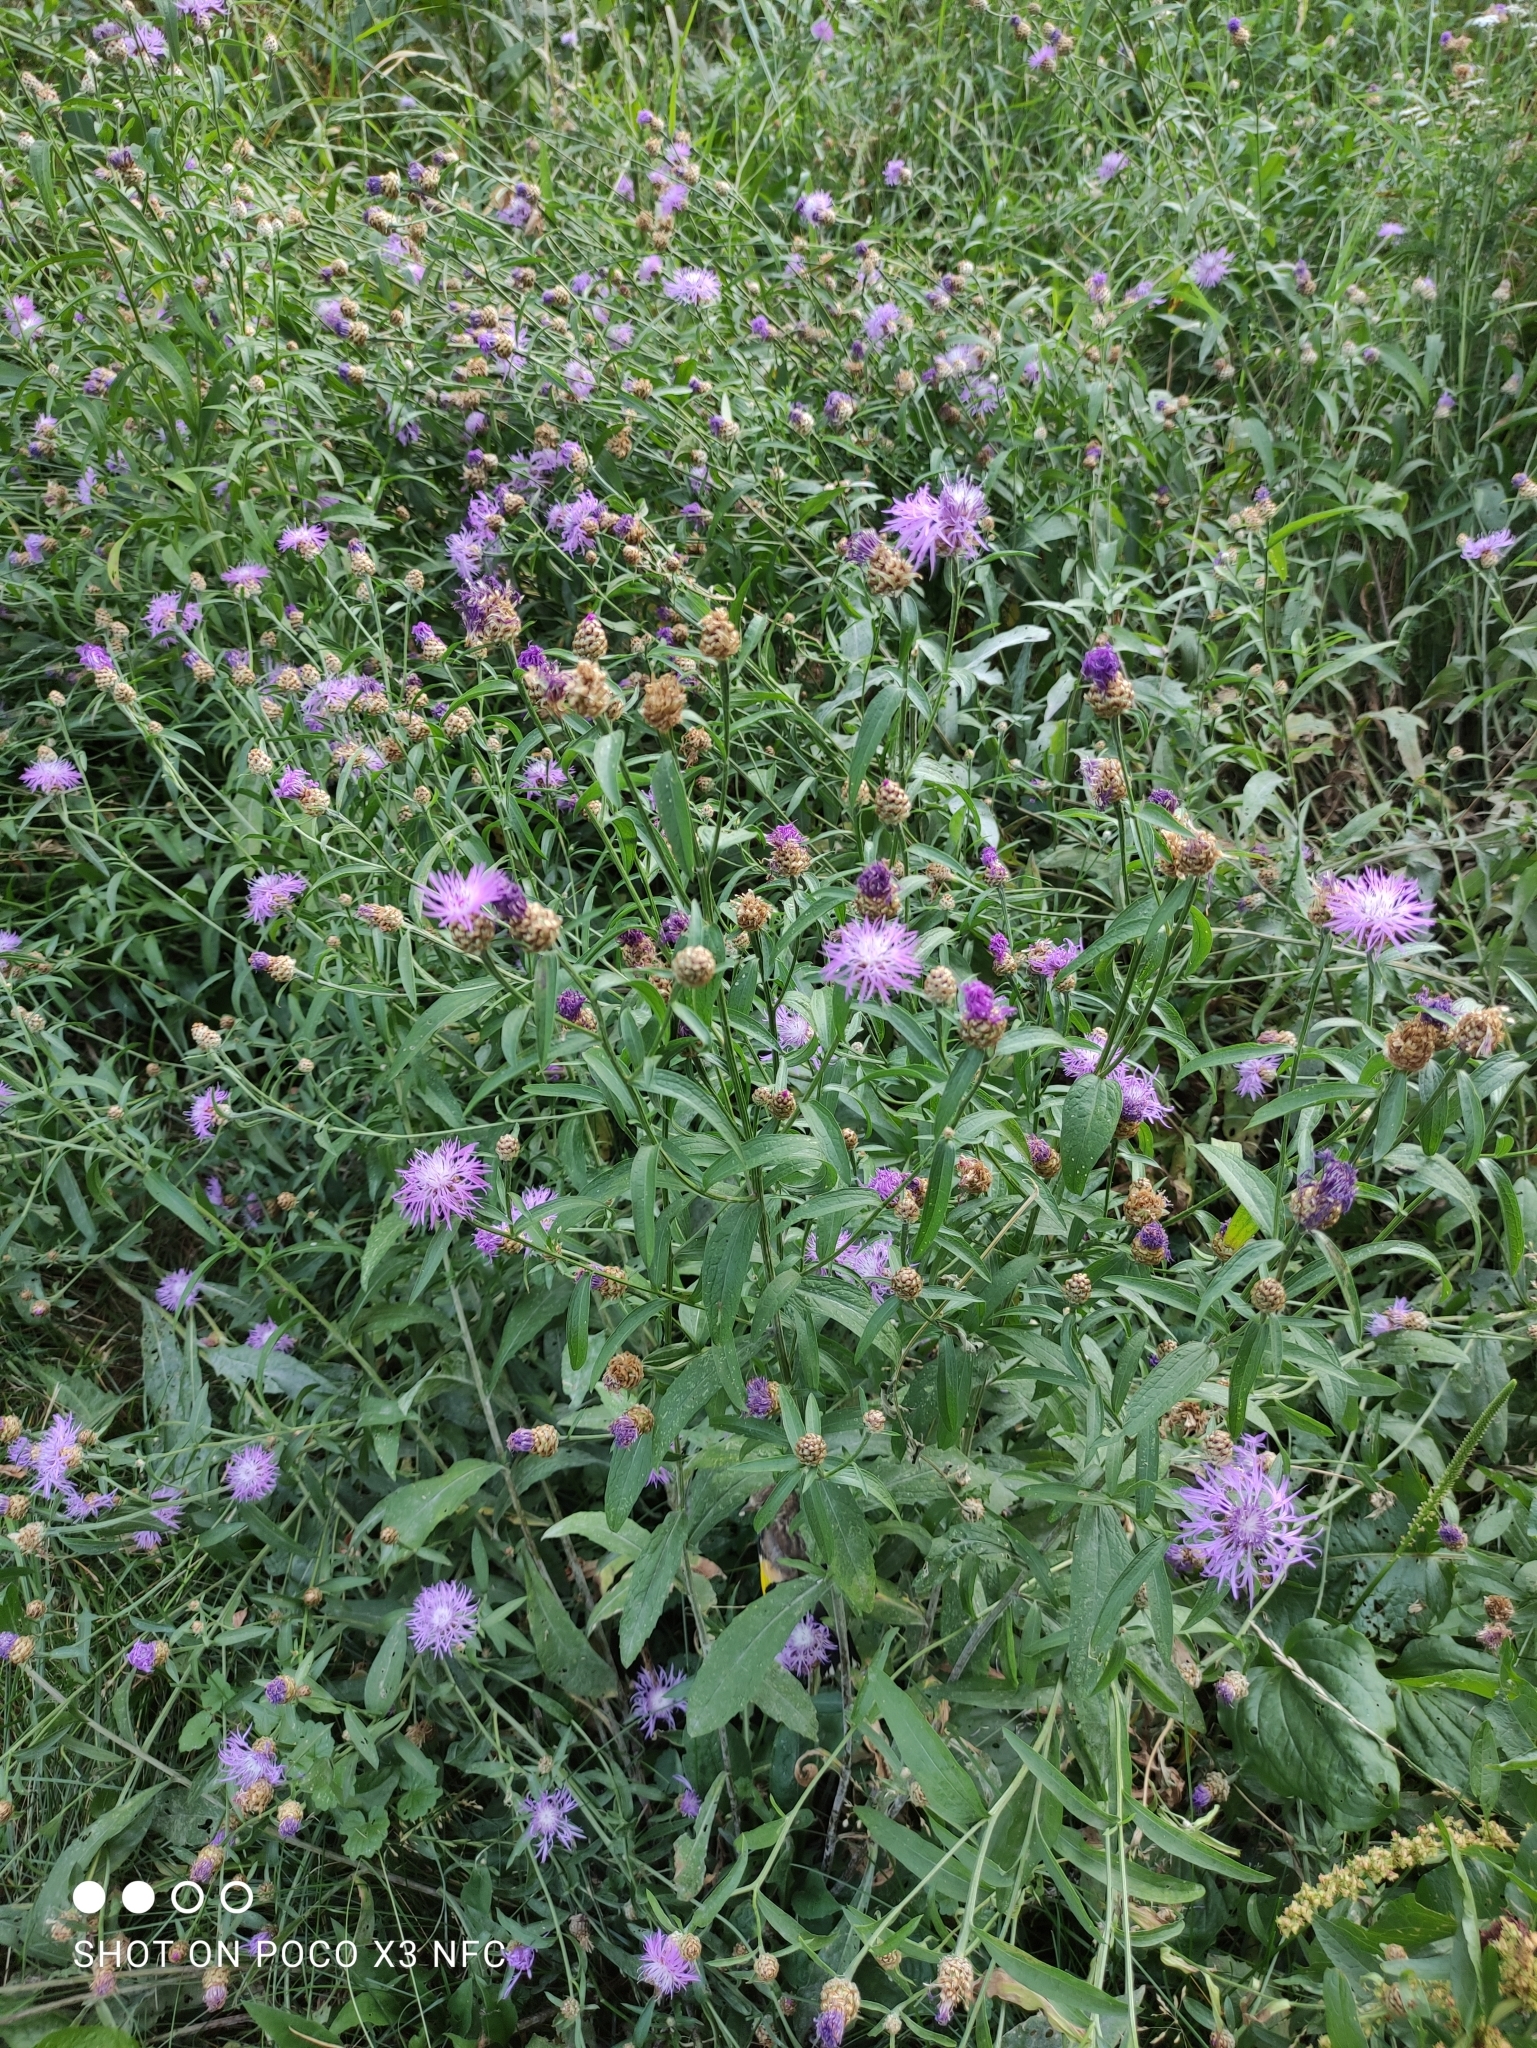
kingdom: Plantae
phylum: Tracheophyta
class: Magnoliopsida
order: Asterales
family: Asteraceae
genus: Centaurea
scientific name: Centaurea jacea
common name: Brown knapweed
